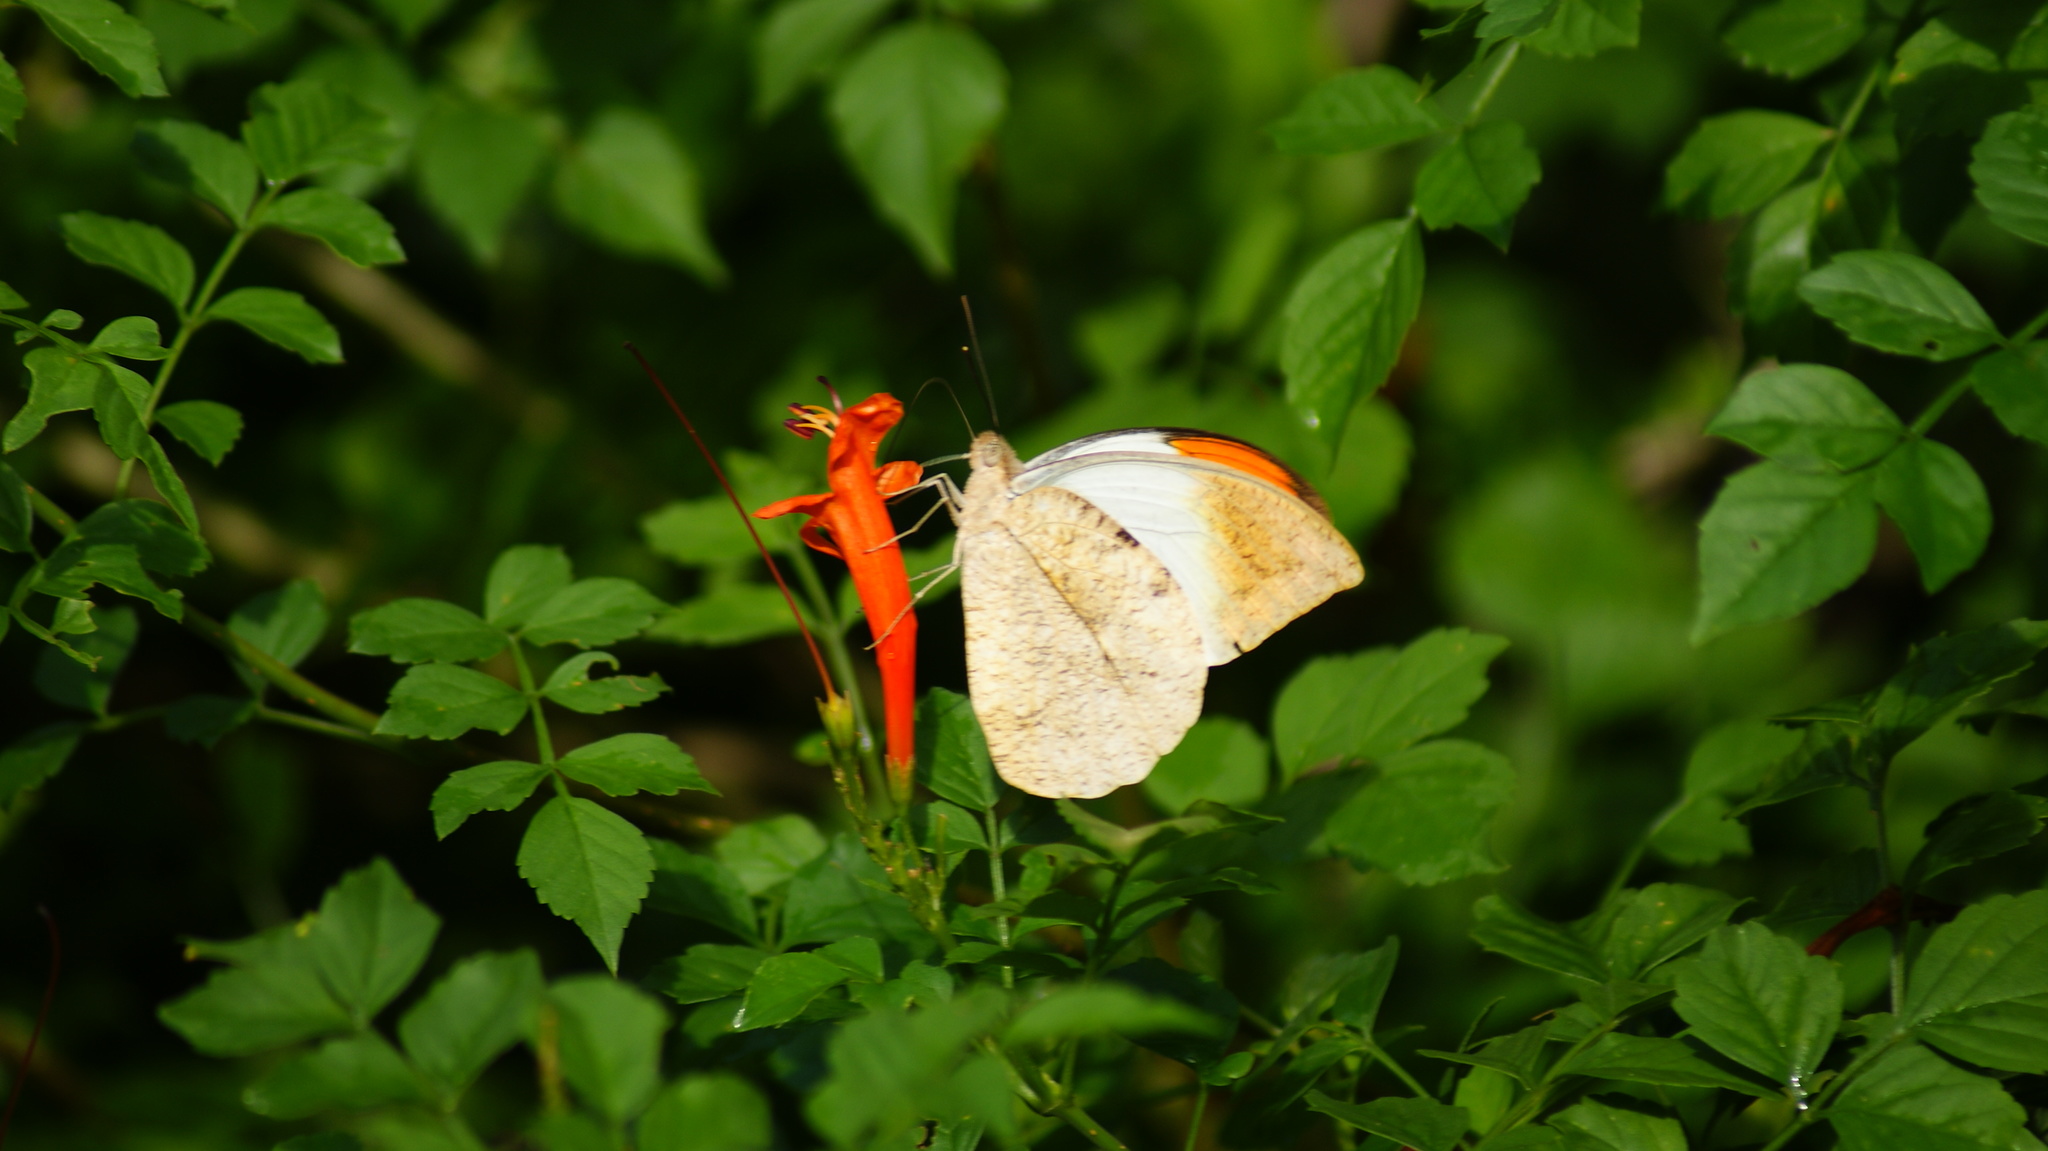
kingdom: Animalia
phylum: Arthropoda
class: Insecta
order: Lepidoptera
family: Pieridae
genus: Hebomoia
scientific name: Hebomoia glaucippe
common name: Great orange tip
